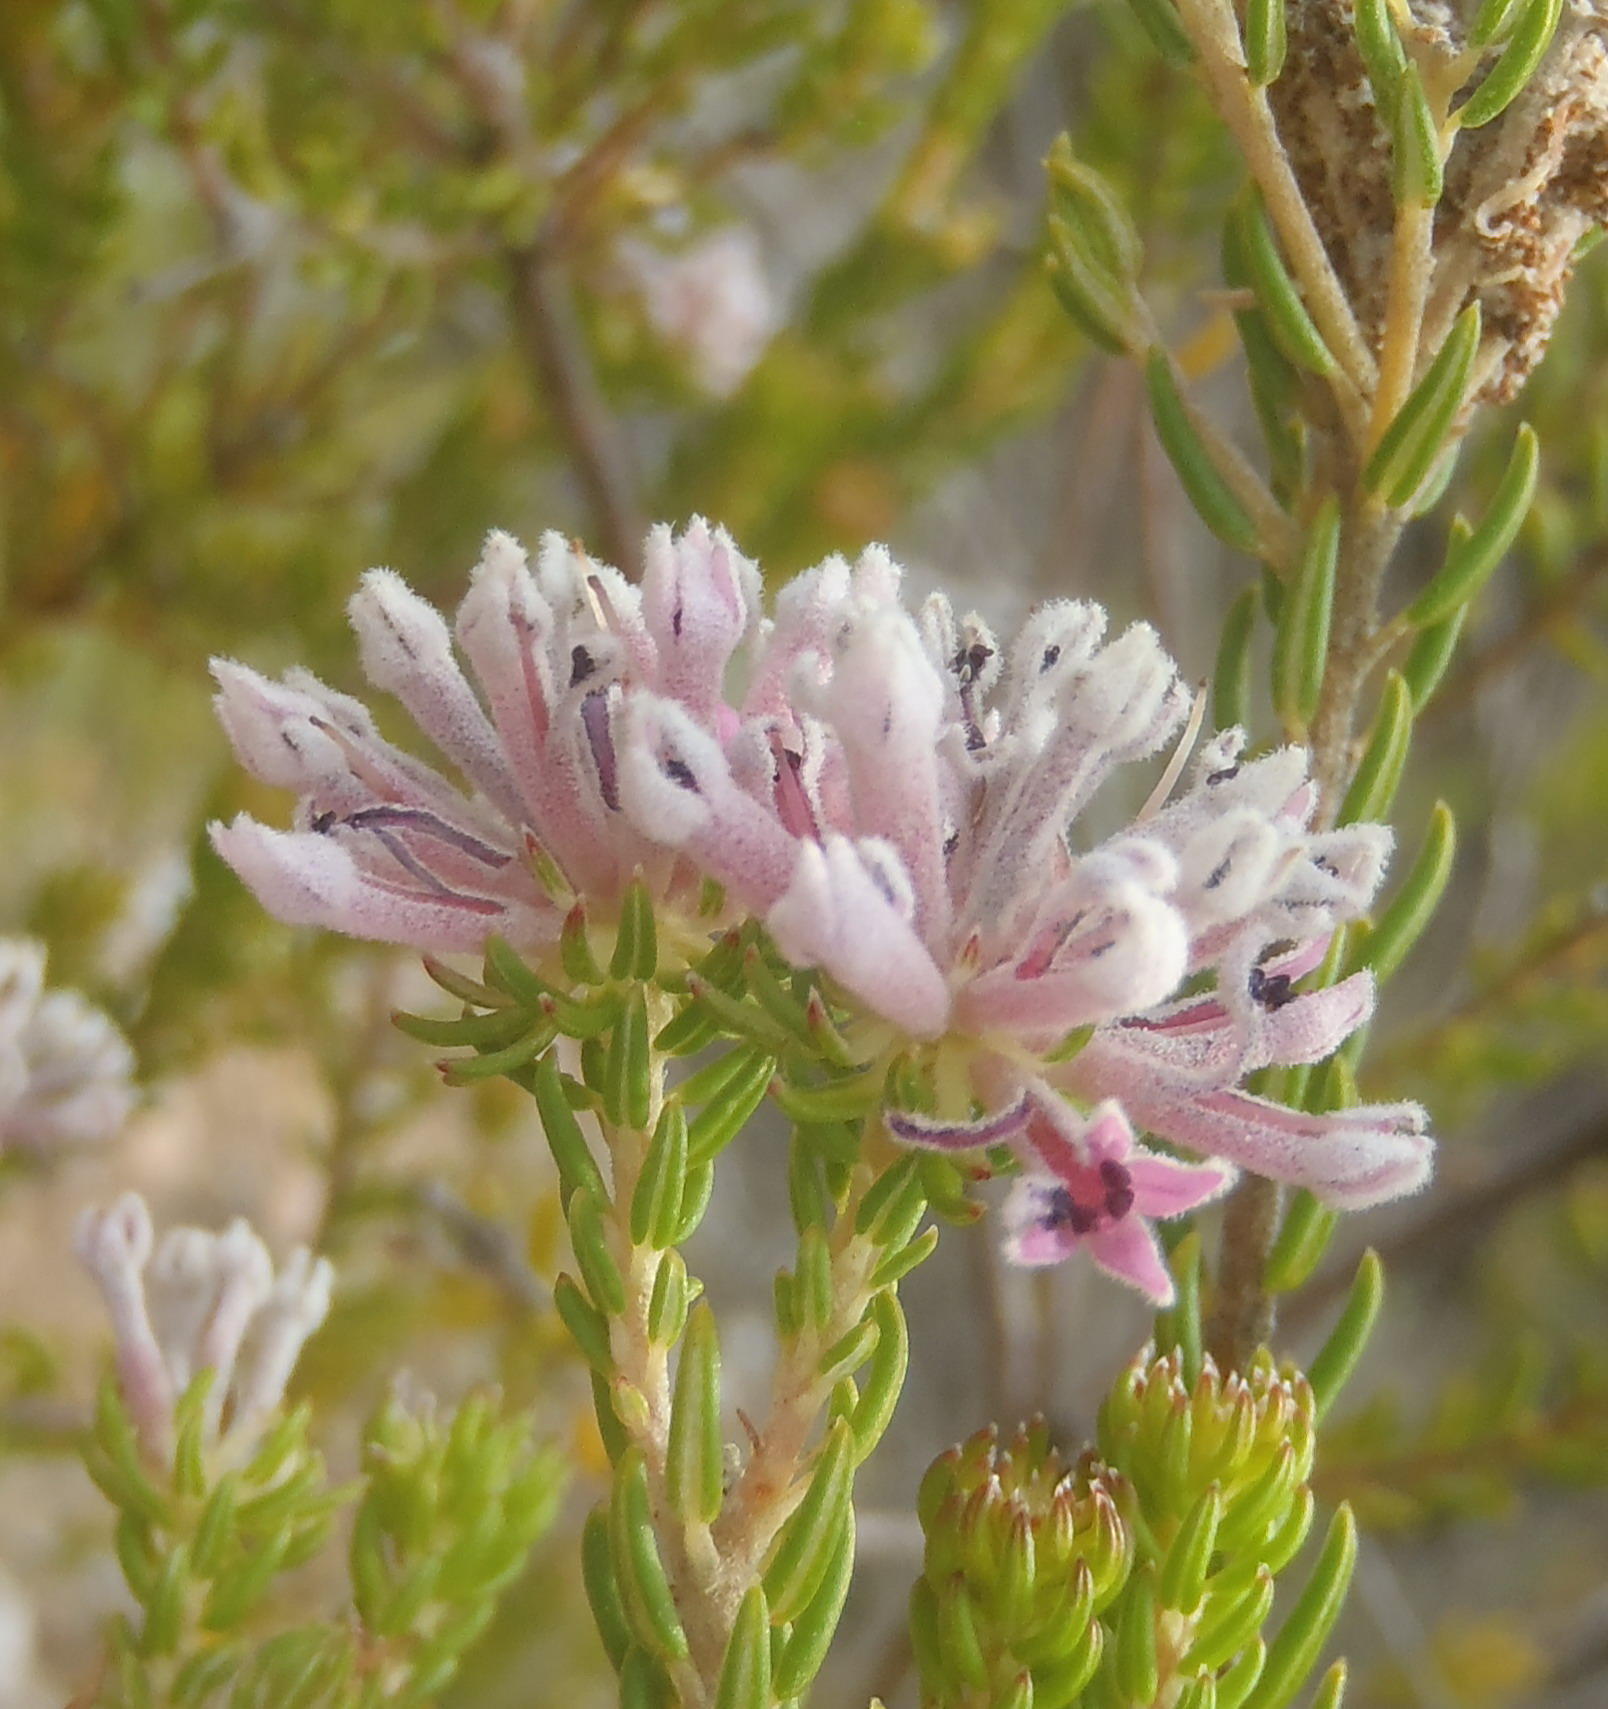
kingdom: Plantae
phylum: Tracheophyta
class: Magnoliopsida
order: Rosales
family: Rhamnaceae
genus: Phylica
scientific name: Phylica lachneaeoides
